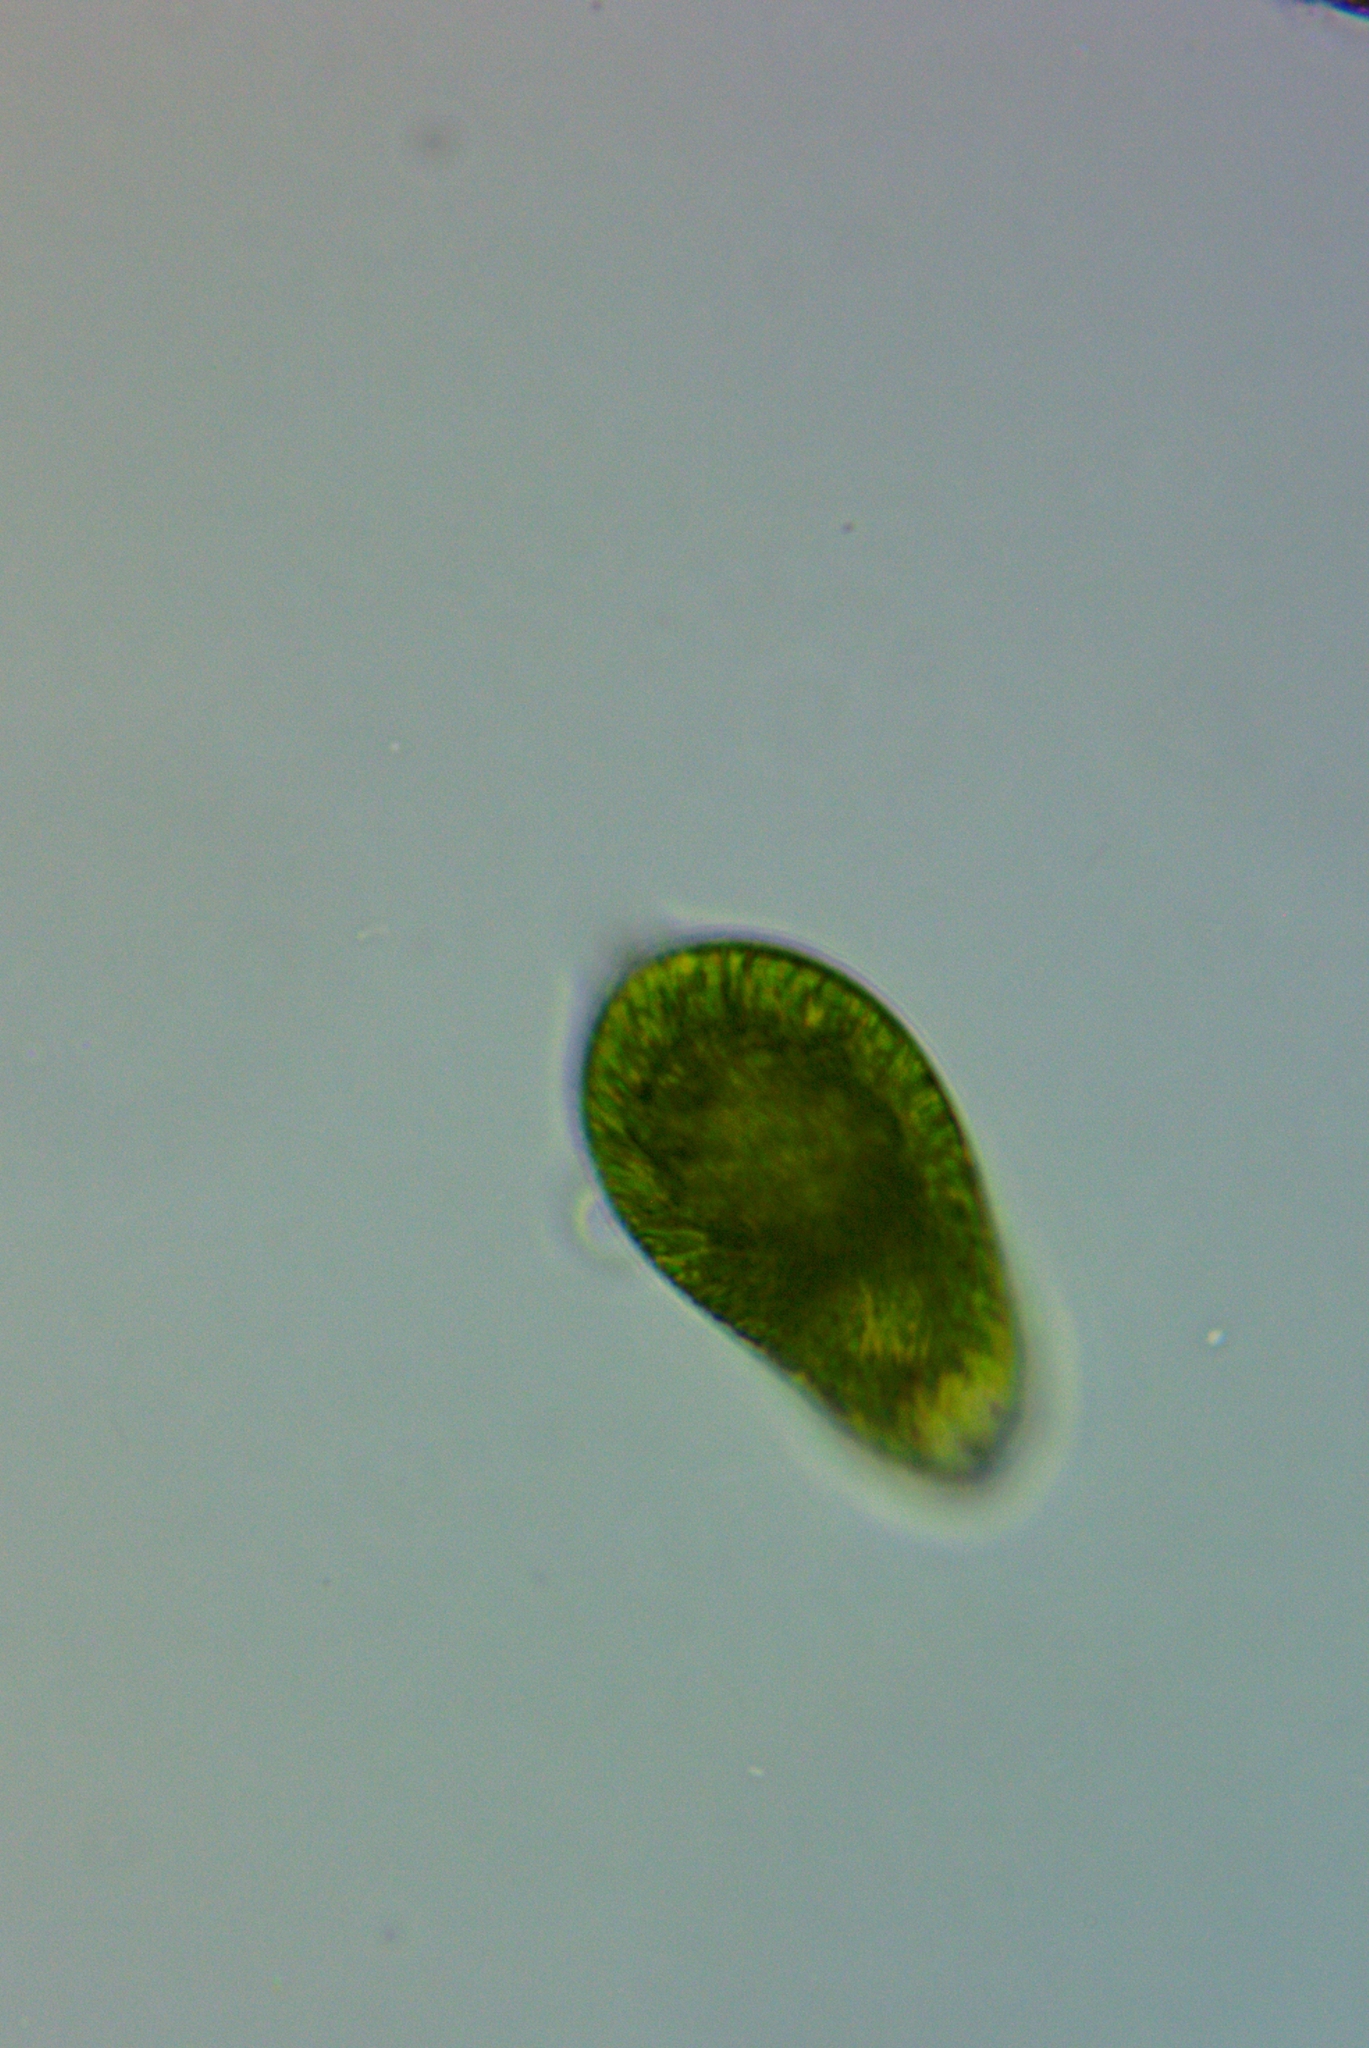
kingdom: Protozoa
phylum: Euglenozoa
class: Euglenoidea
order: Euglenida
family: Euglenaceae
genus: Euglena
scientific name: Euglena oblonga
